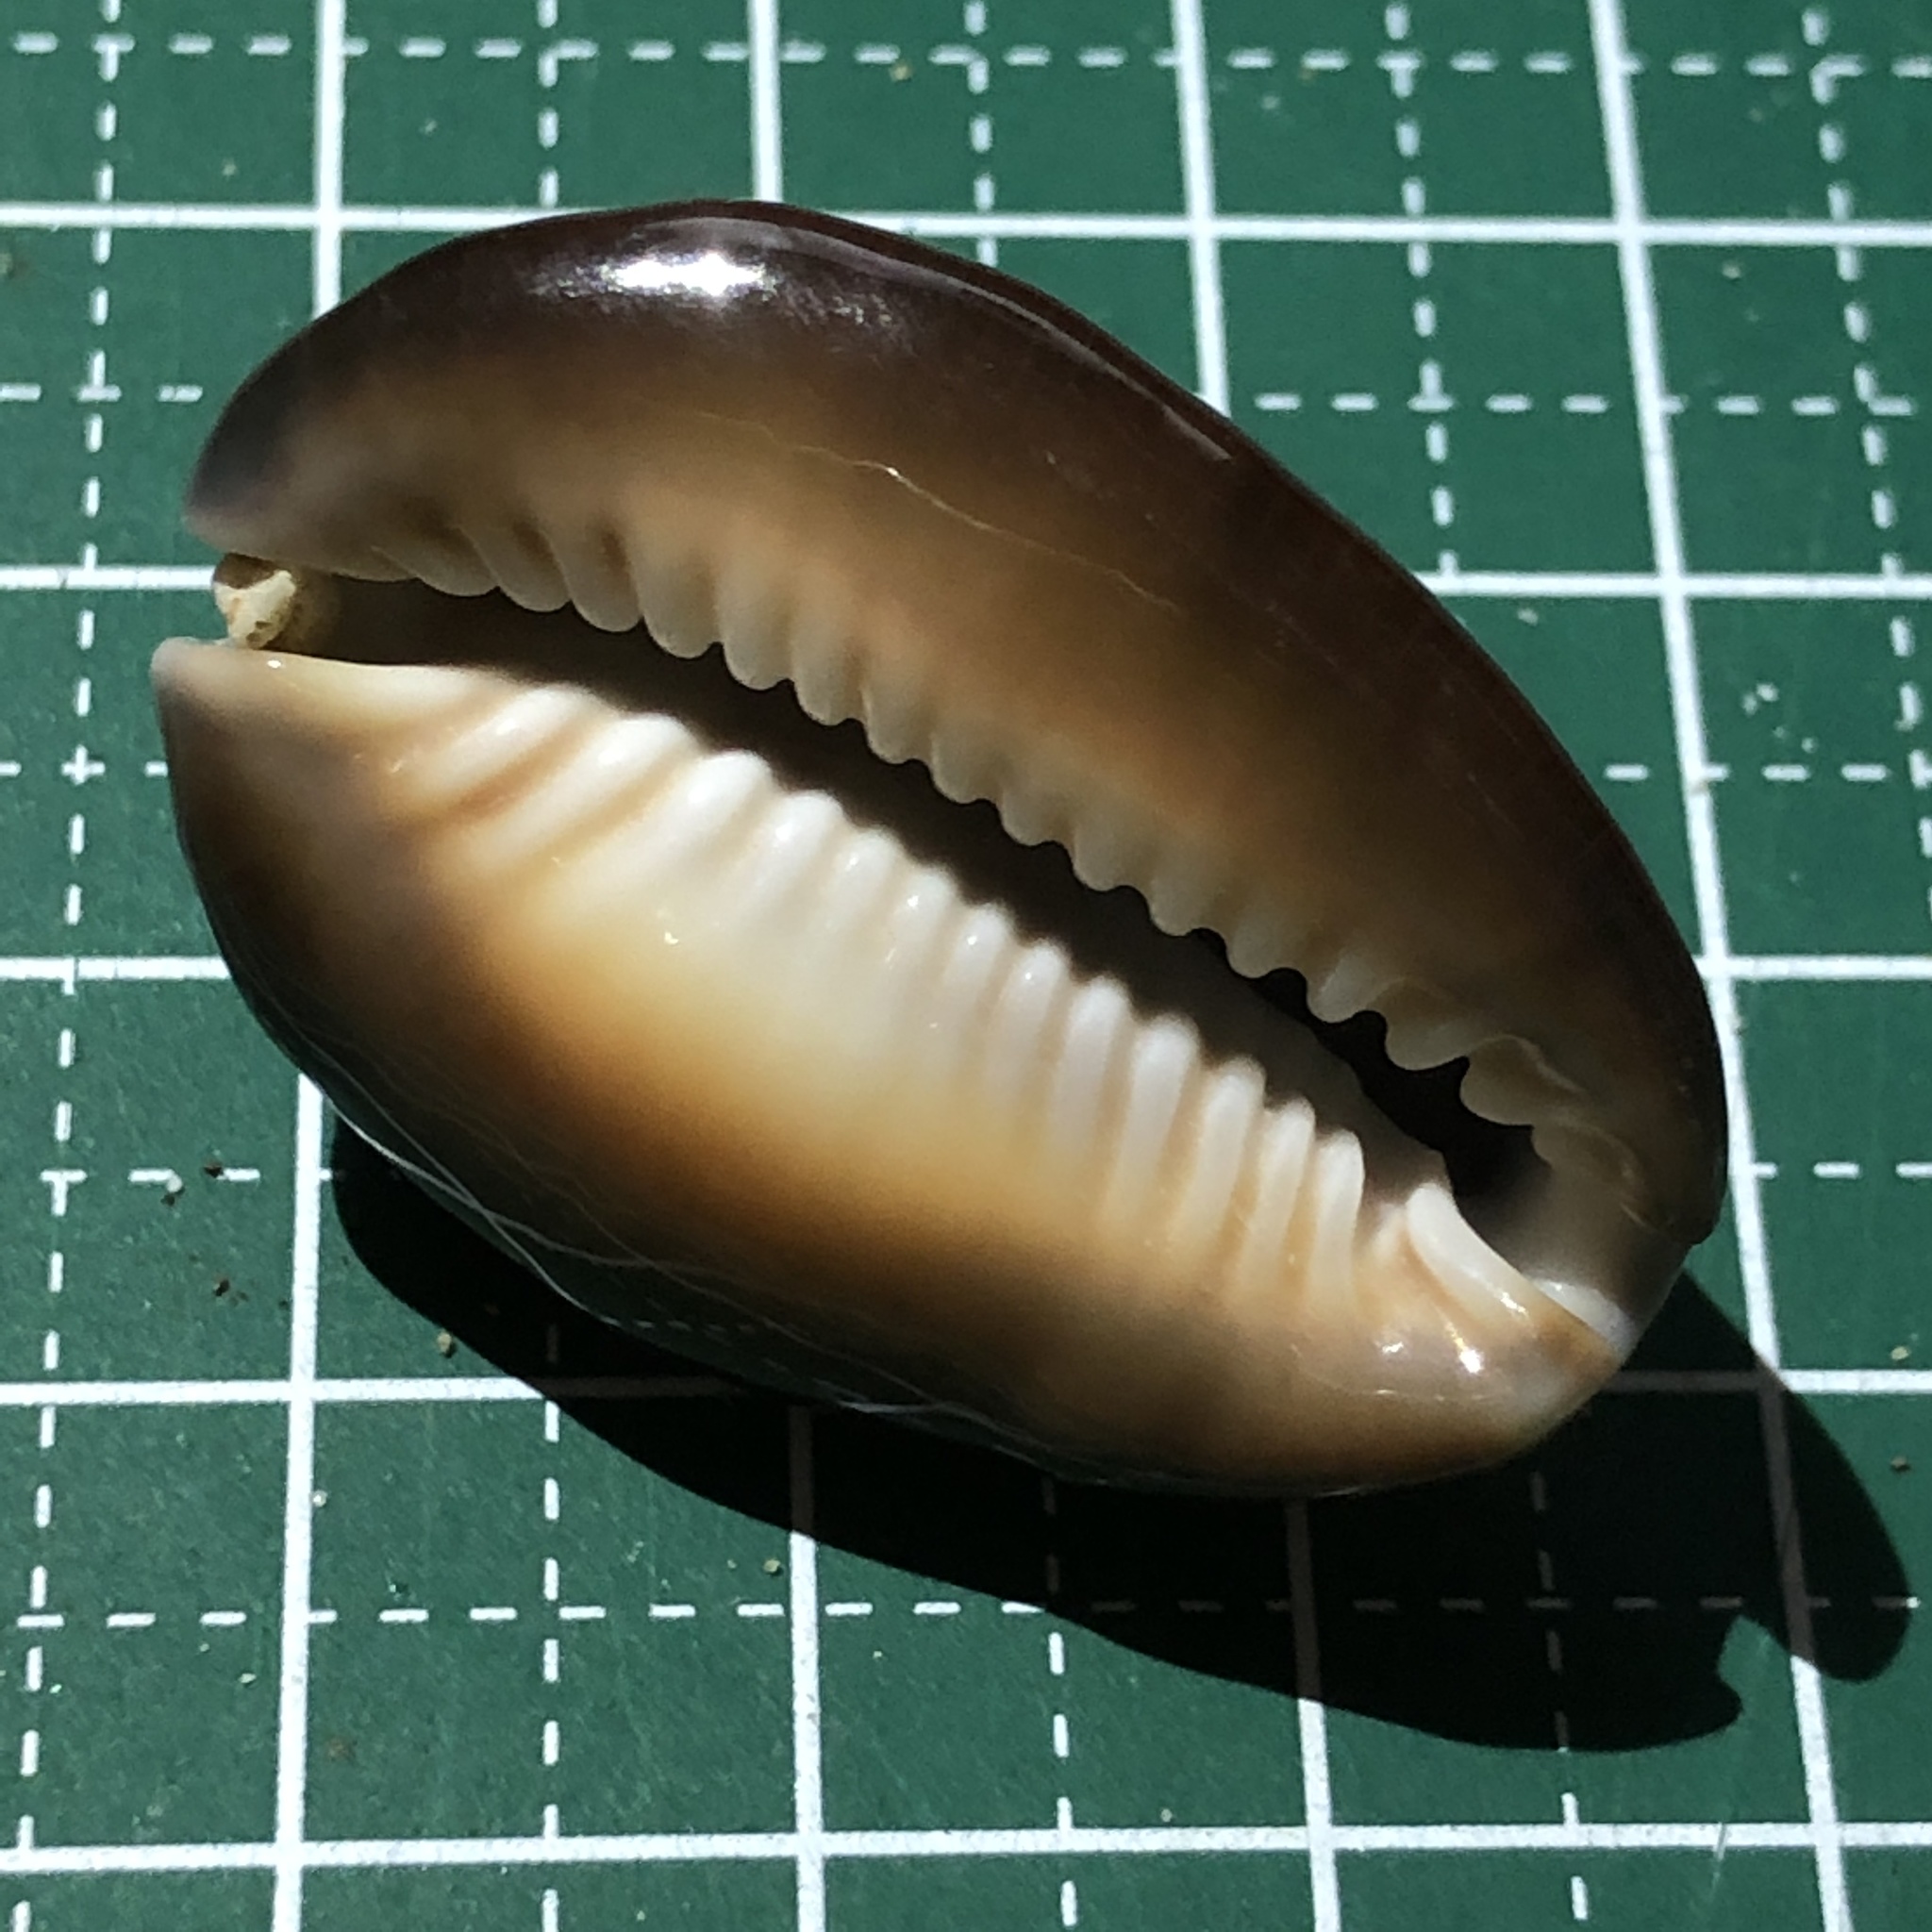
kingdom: Animalia
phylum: Mollusca
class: Gastropoda
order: Littorinimorpha
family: Cypraeidae
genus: Monetaria
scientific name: Monetaria caputserpentis
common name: Serpent's head cowrie
